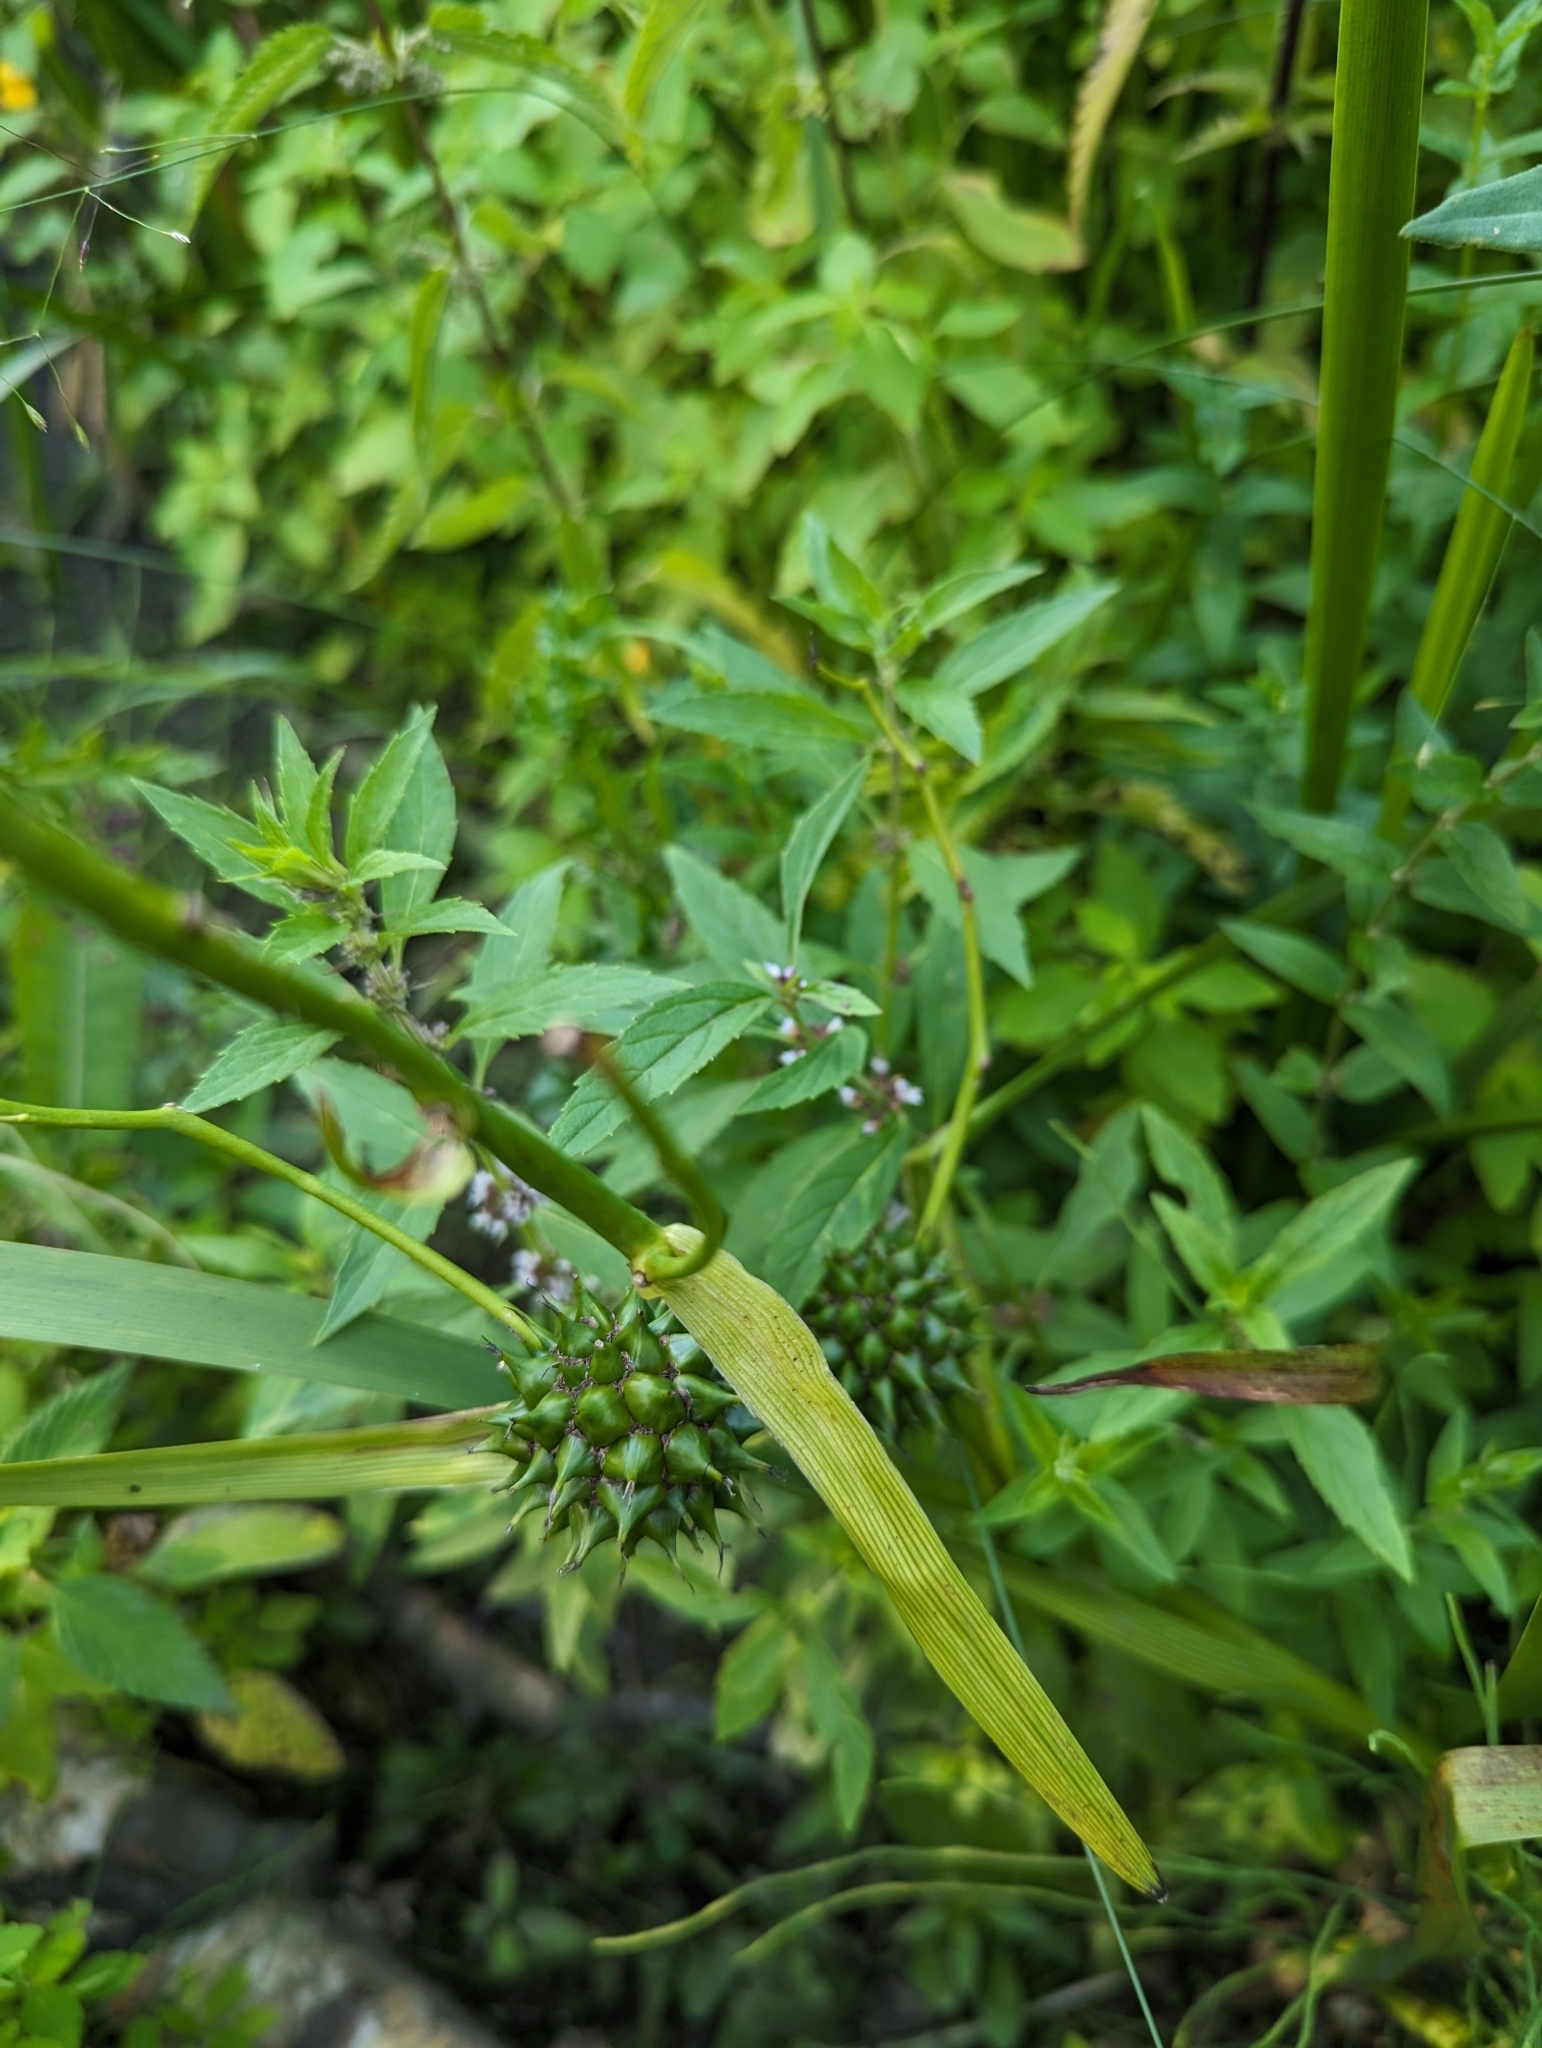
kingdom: Plantae
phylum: Tracheophyta
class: Liliopsida
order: Poales
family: Typhaceae
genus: Sparganium
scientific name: Sparganium eurycarpum
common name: Broad-fruited burreed
